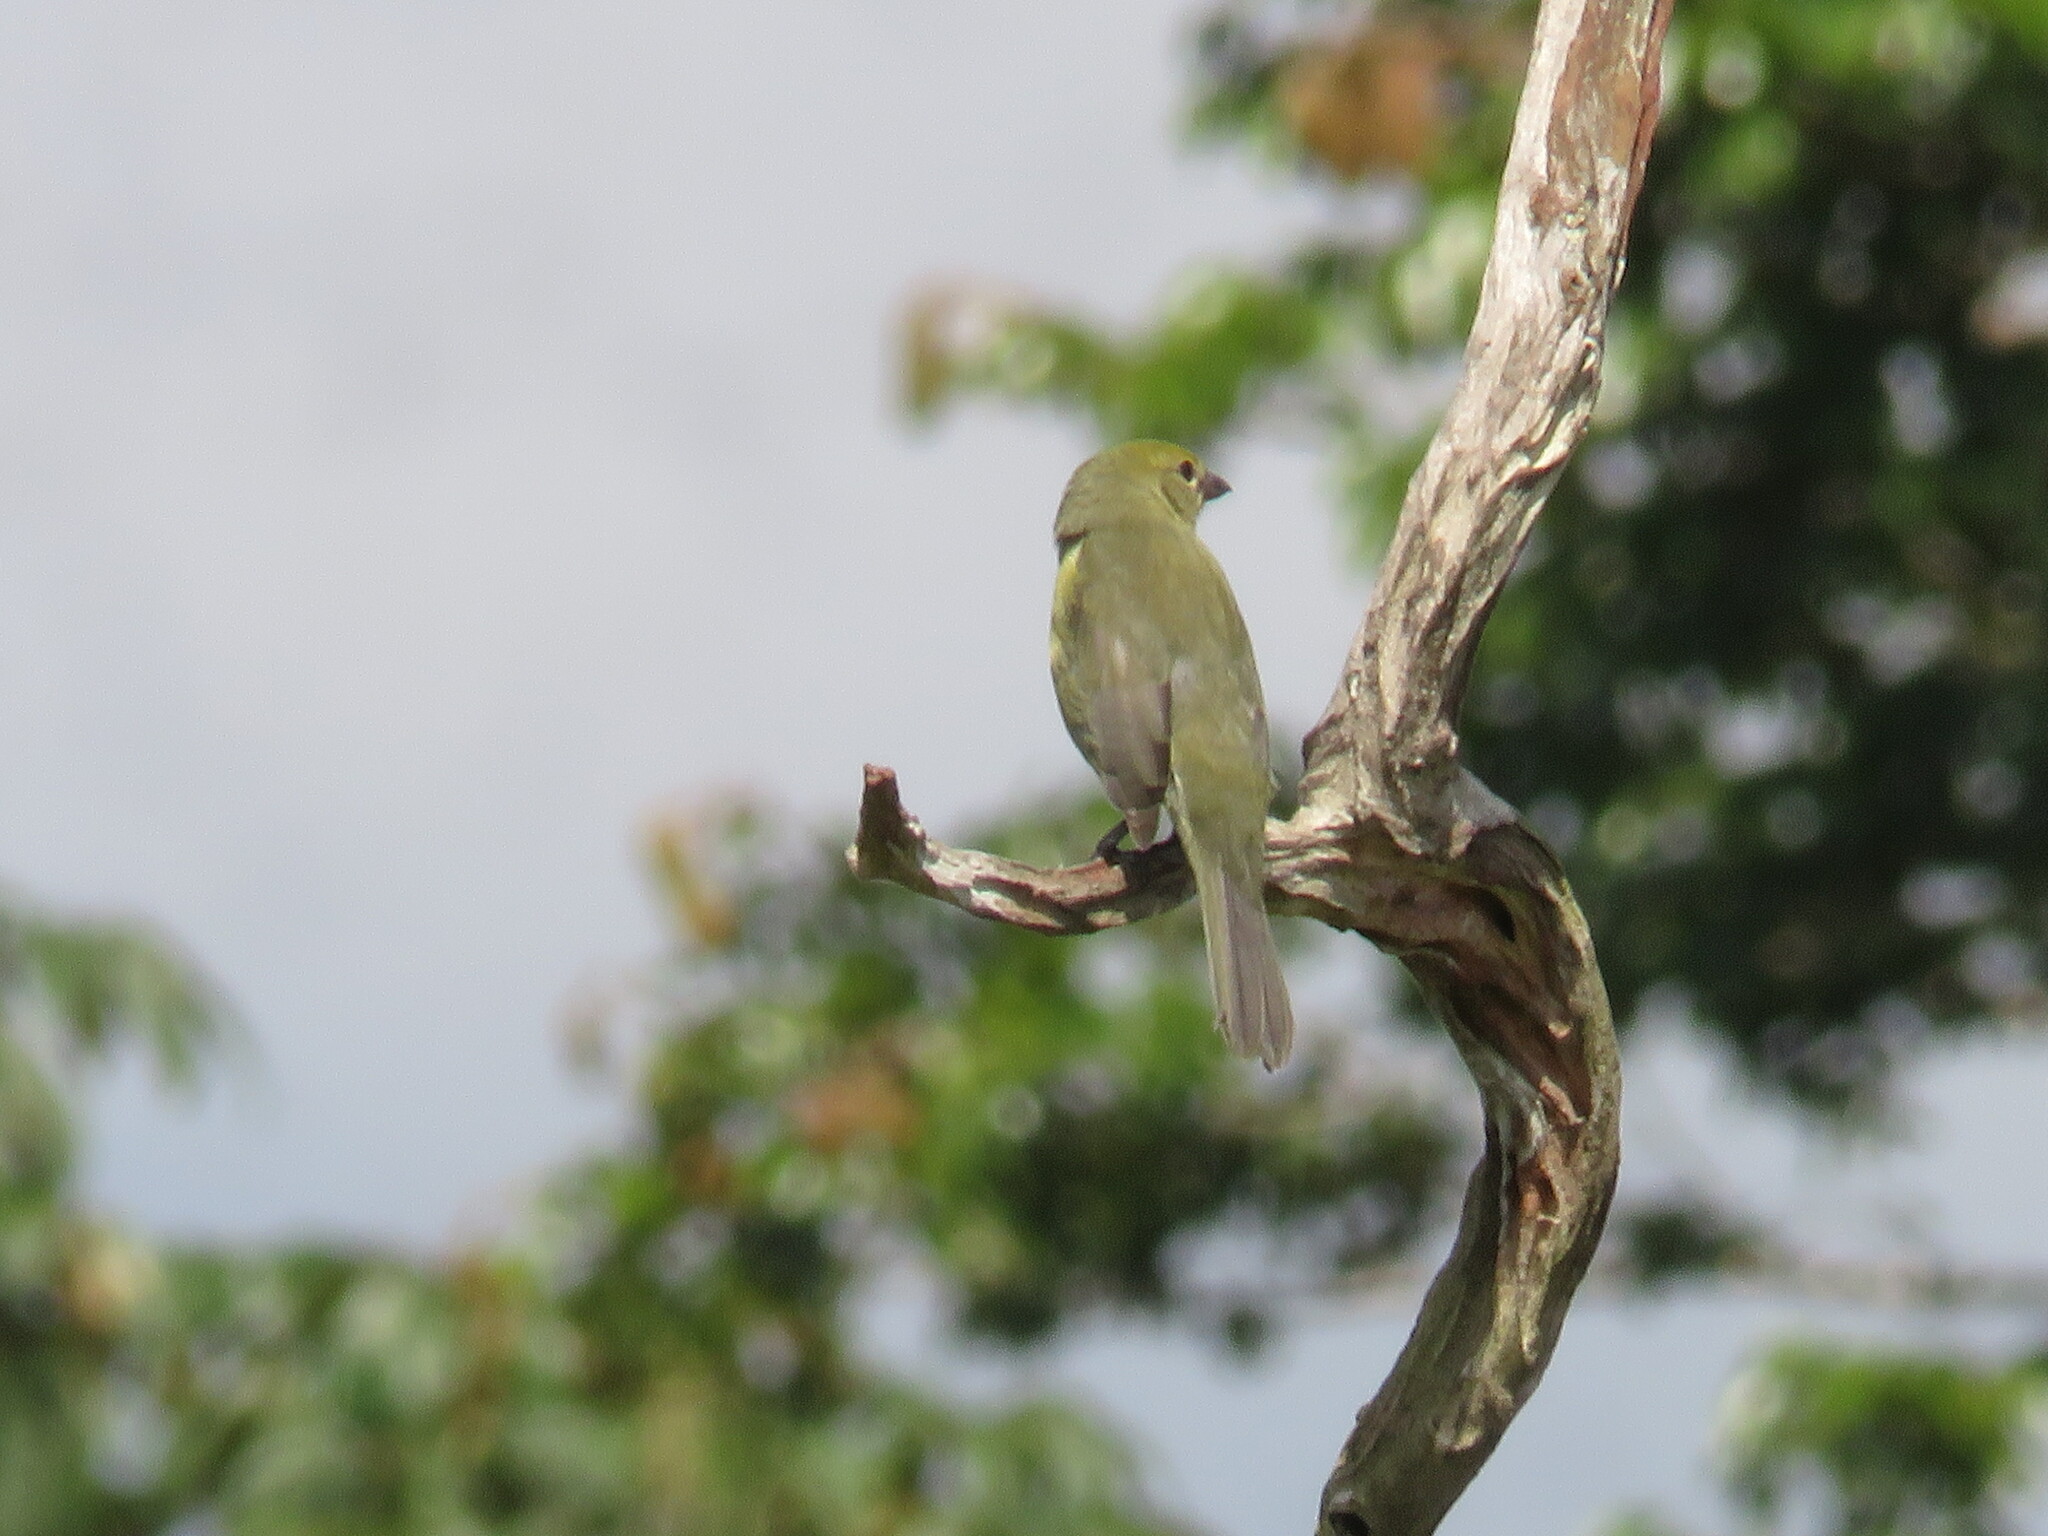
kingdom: Animalia
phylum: Chordata
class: Aves
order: Passeriformes
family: Thraupidae
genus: Schistochlamys
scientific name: Schistochlamys melanopis
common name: Black-faced tanager
